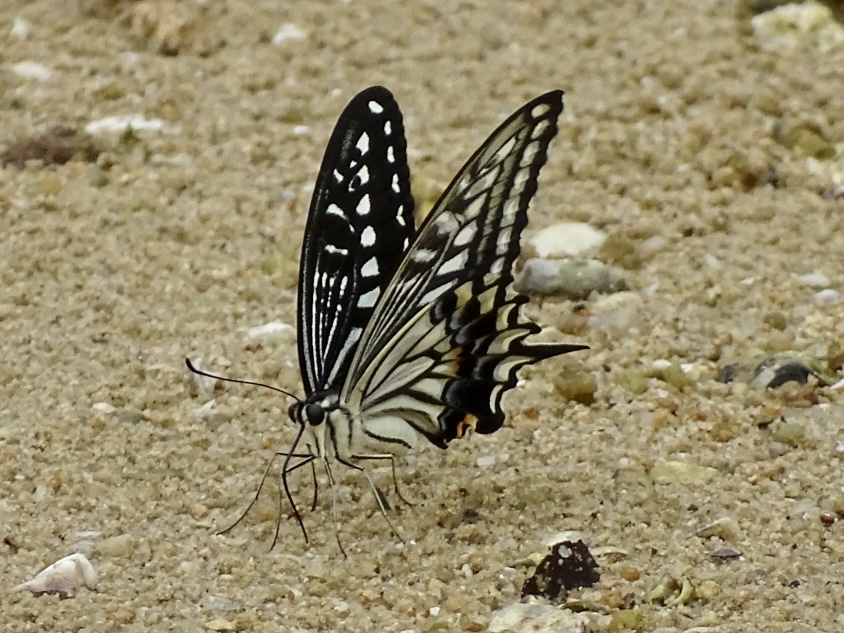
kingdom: Animalia
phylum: Arthropoda
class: Insecta
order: Lepidoptera
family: Papilionidae
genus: Papilio
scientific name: Papilio xuthus
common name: Asian swallowtail
